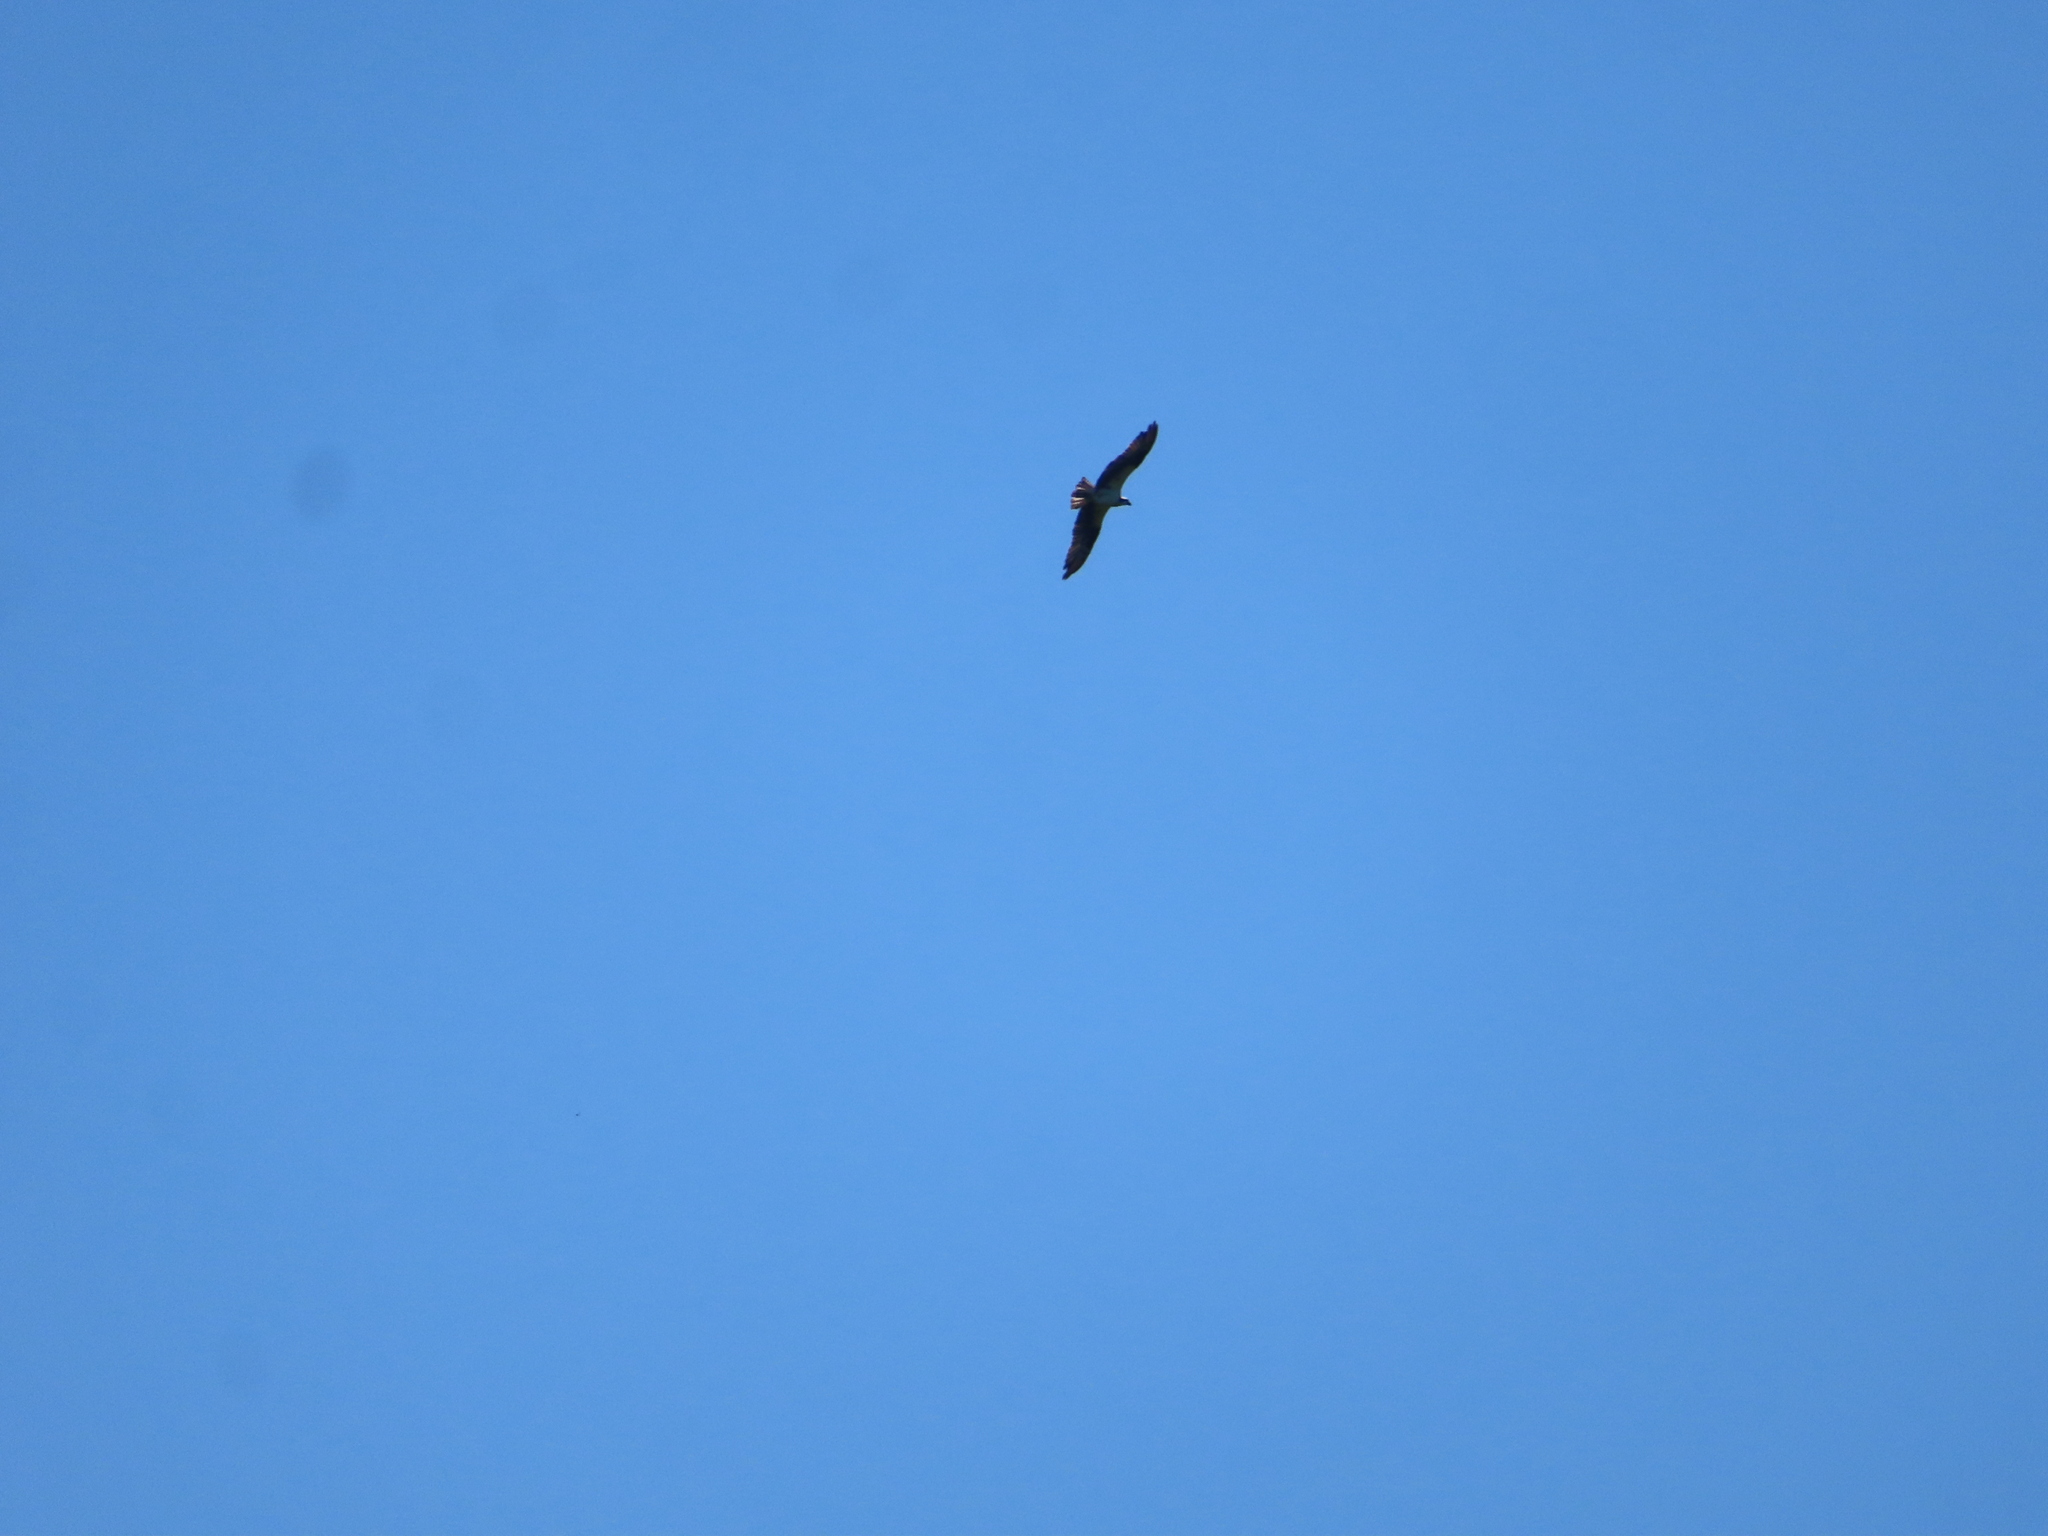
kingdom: Animalia
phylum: Chordata
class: Aves
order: Accipitriformes
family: Pandionidae
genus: Pandion
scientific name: Pandion haliaetus
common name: Osprey
